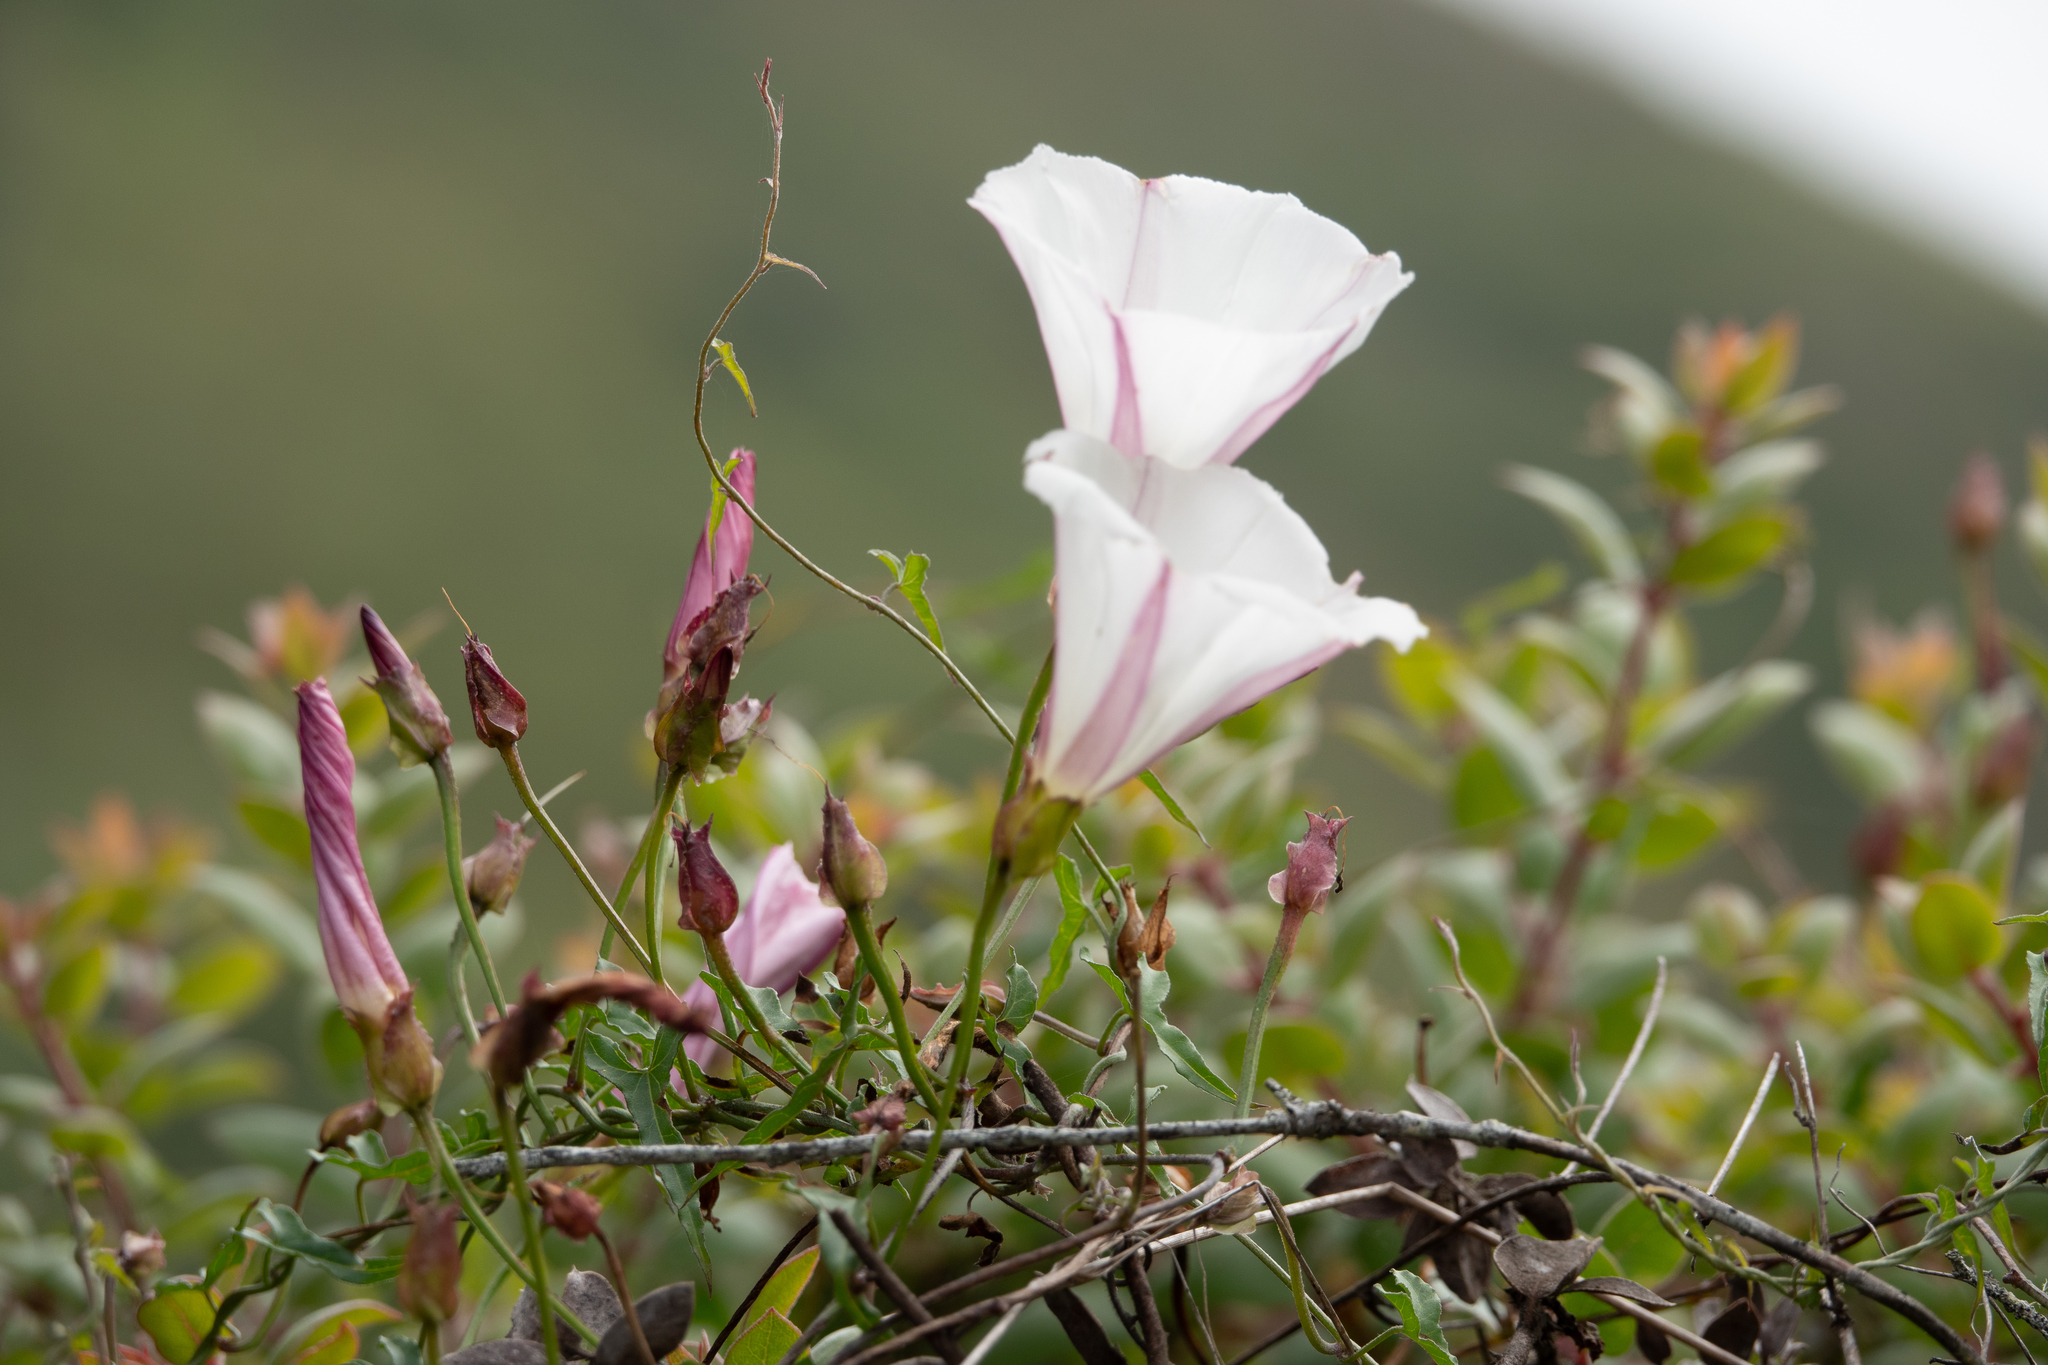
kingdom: Plantae
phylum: Tracheophyta
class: Magnoliopsida
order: Solanales
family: Convolvulaceae
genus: Calystegia
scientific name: Calystegia macrostegia
